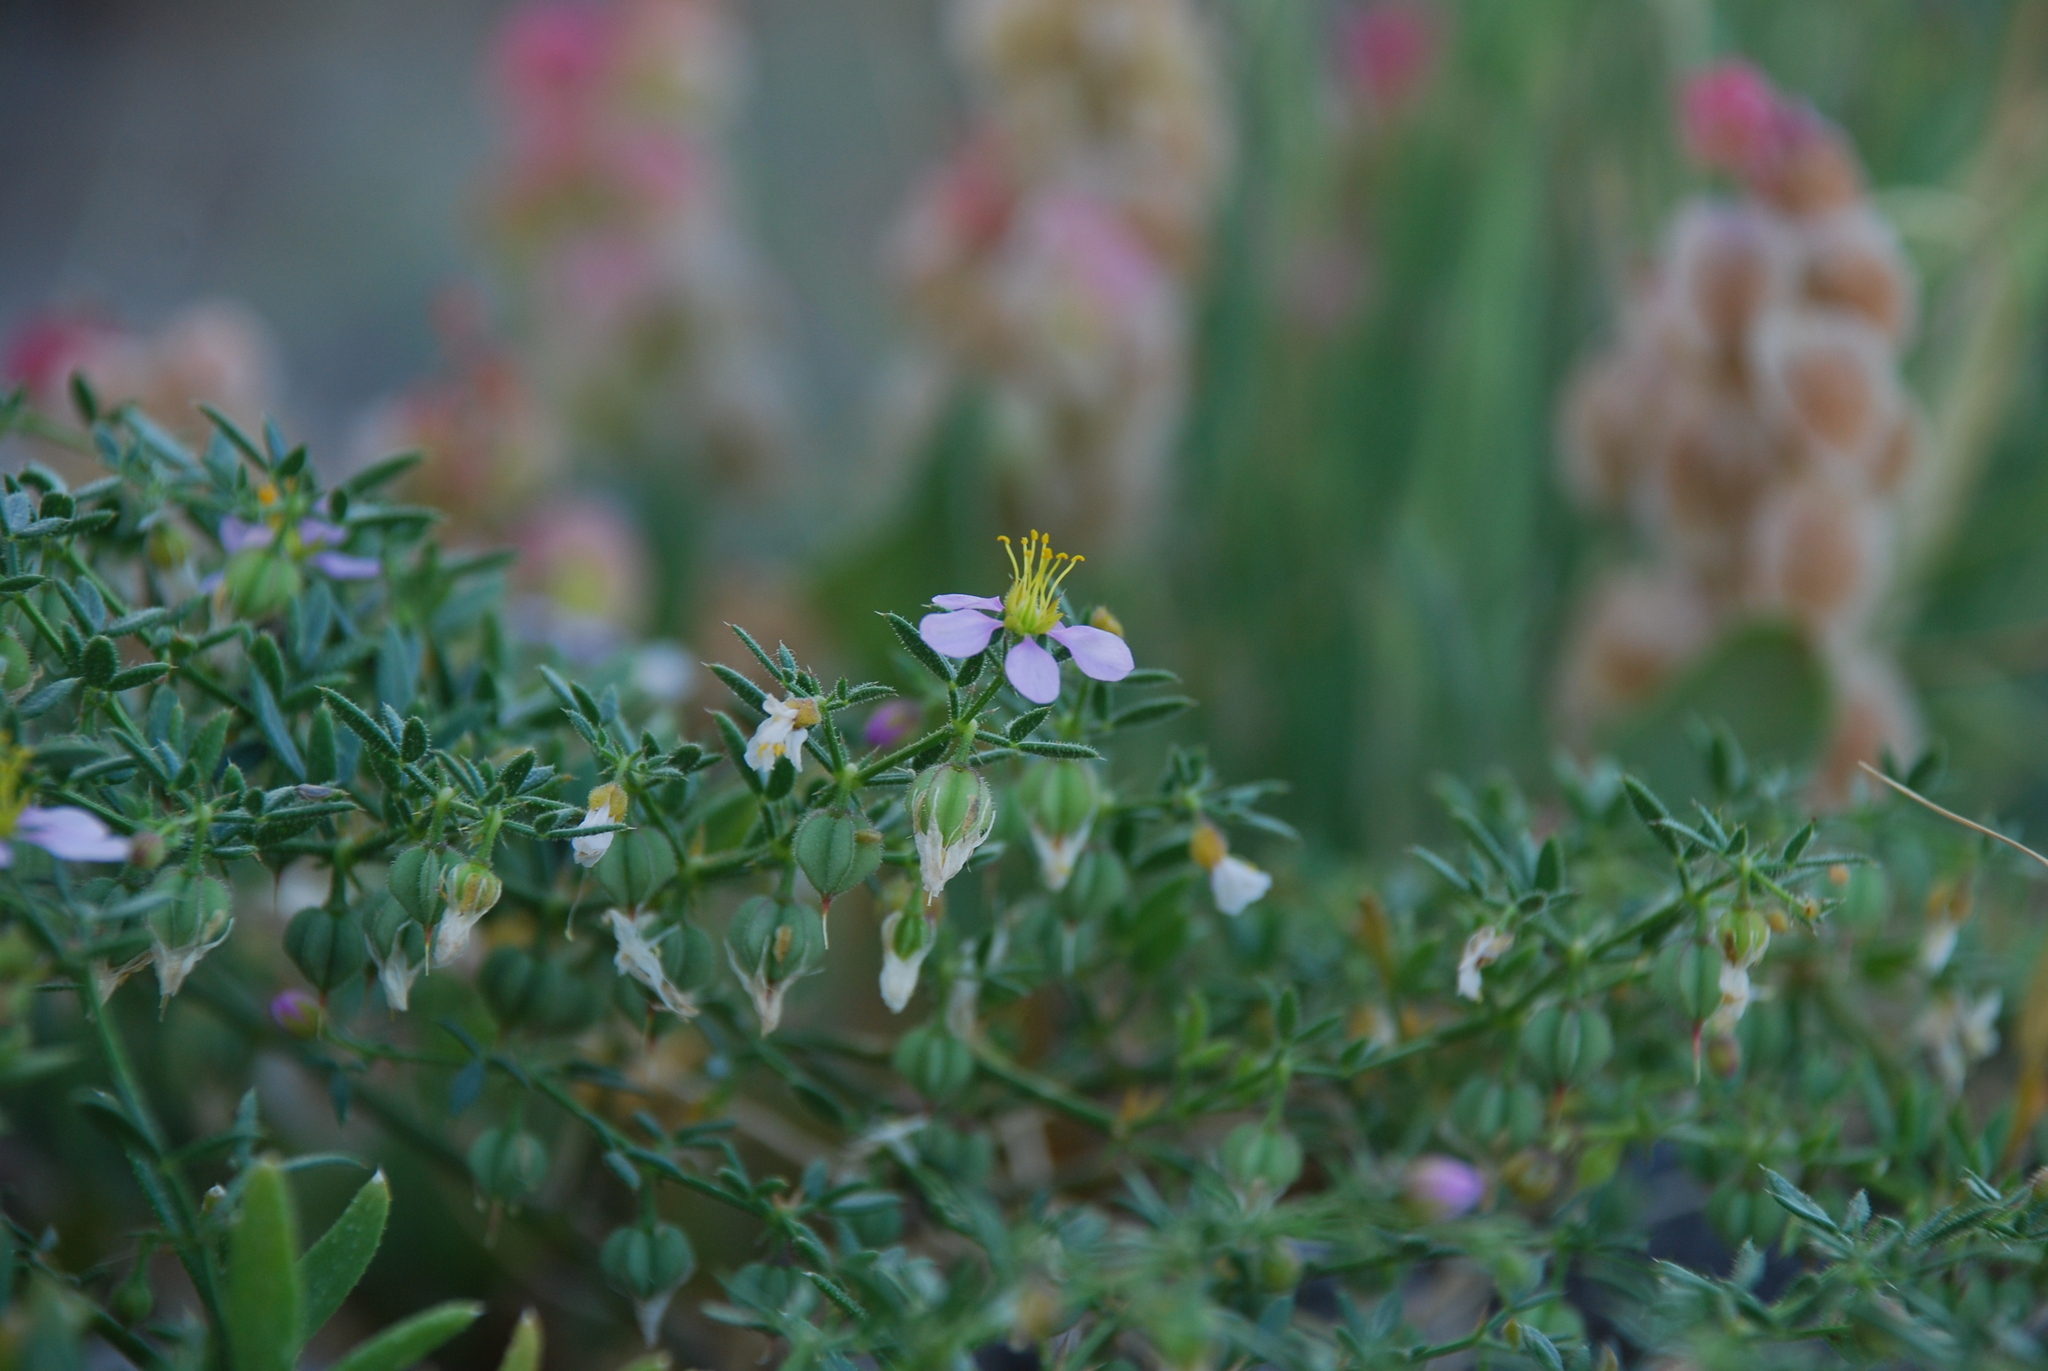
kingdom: Plantae
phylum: Tracheophyta
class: Magnoliopsida
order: Zygophyllales
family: Zygophyllaceae
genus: Fagonia
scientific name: Fagonia cretica
